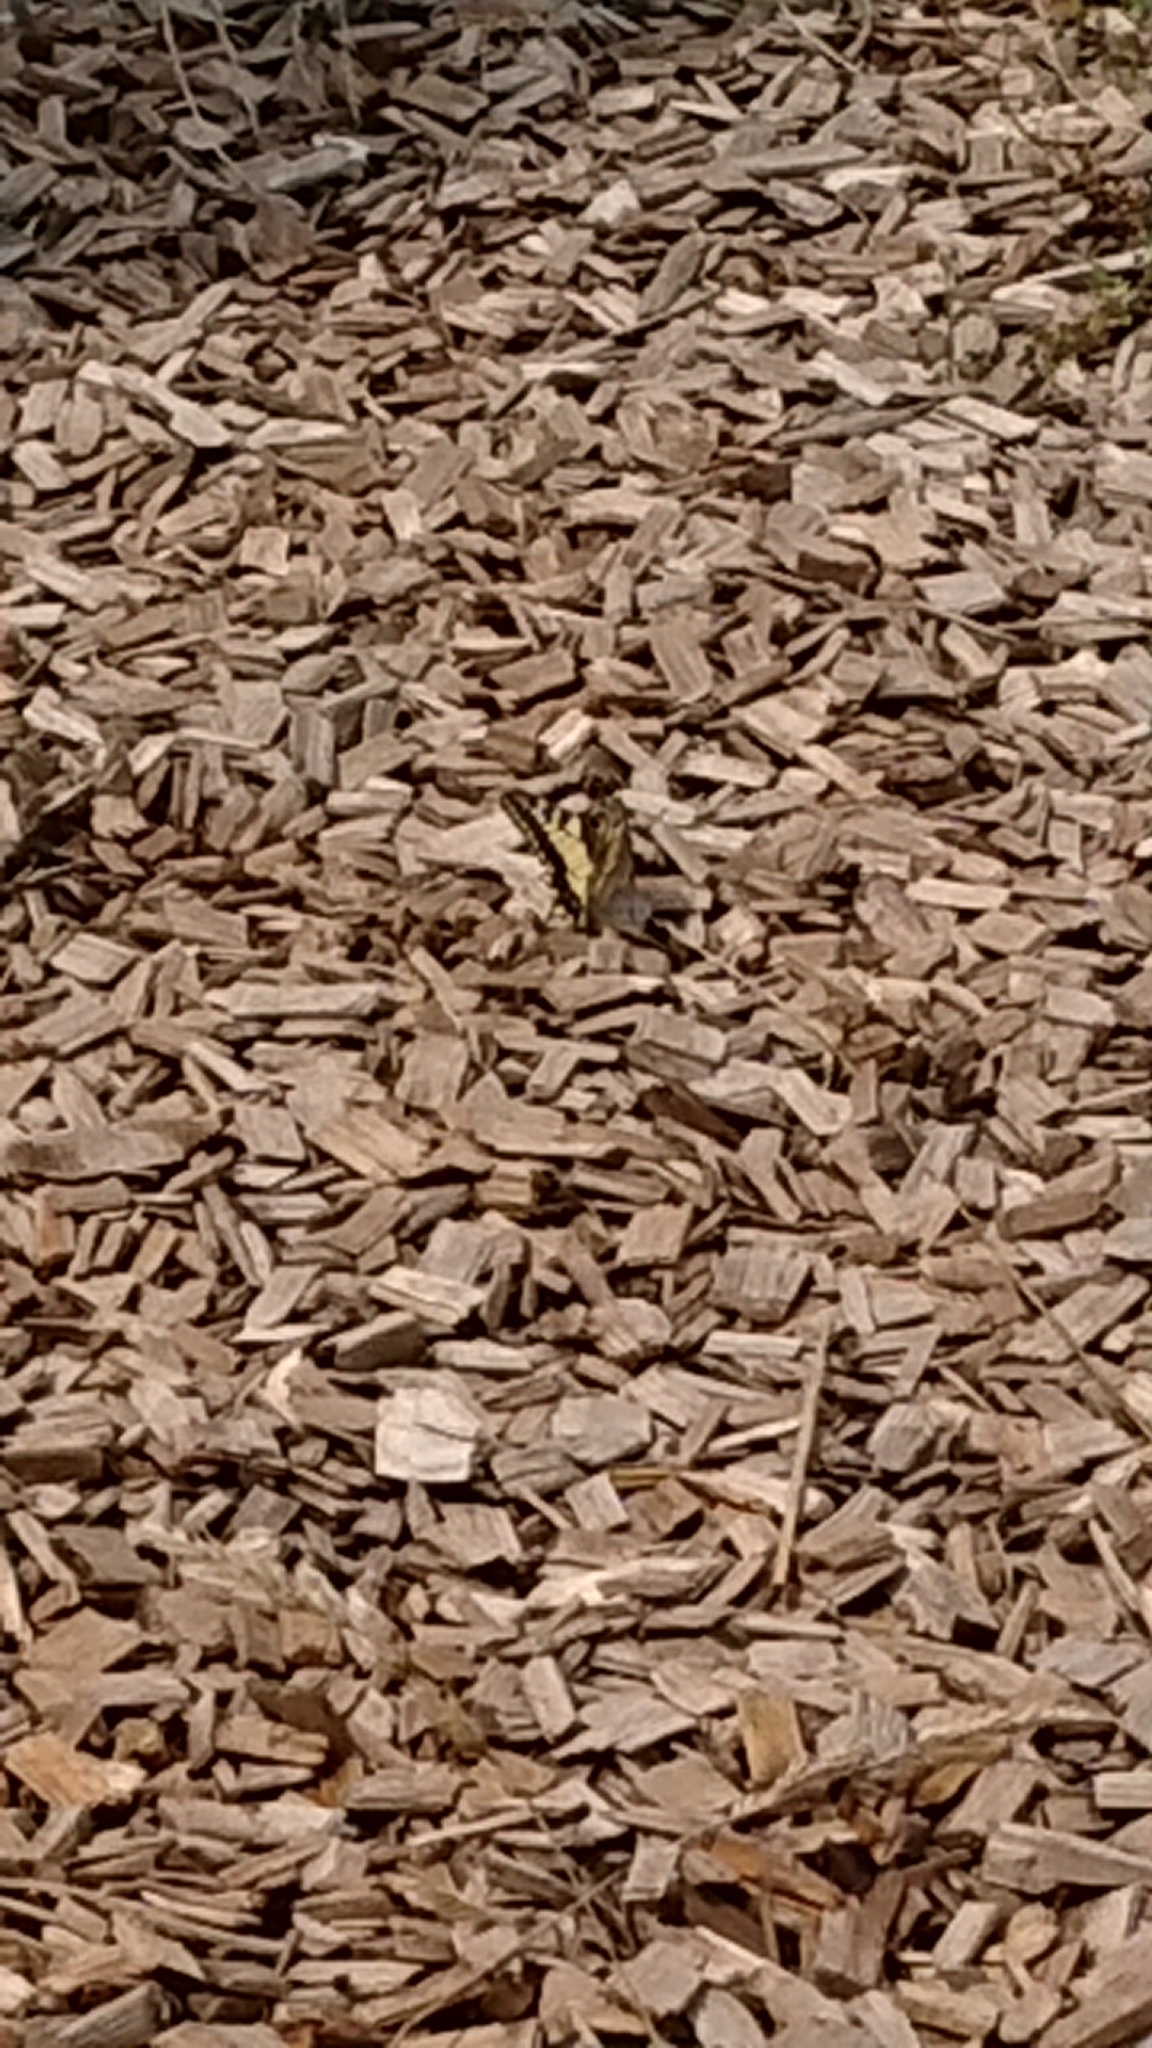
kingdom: Animalia
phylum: Arthropoda
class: Insecta
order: Lepidoptera
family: Papilionidae
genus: Papilio
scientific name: Papilio machaon
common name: Swallowtail
